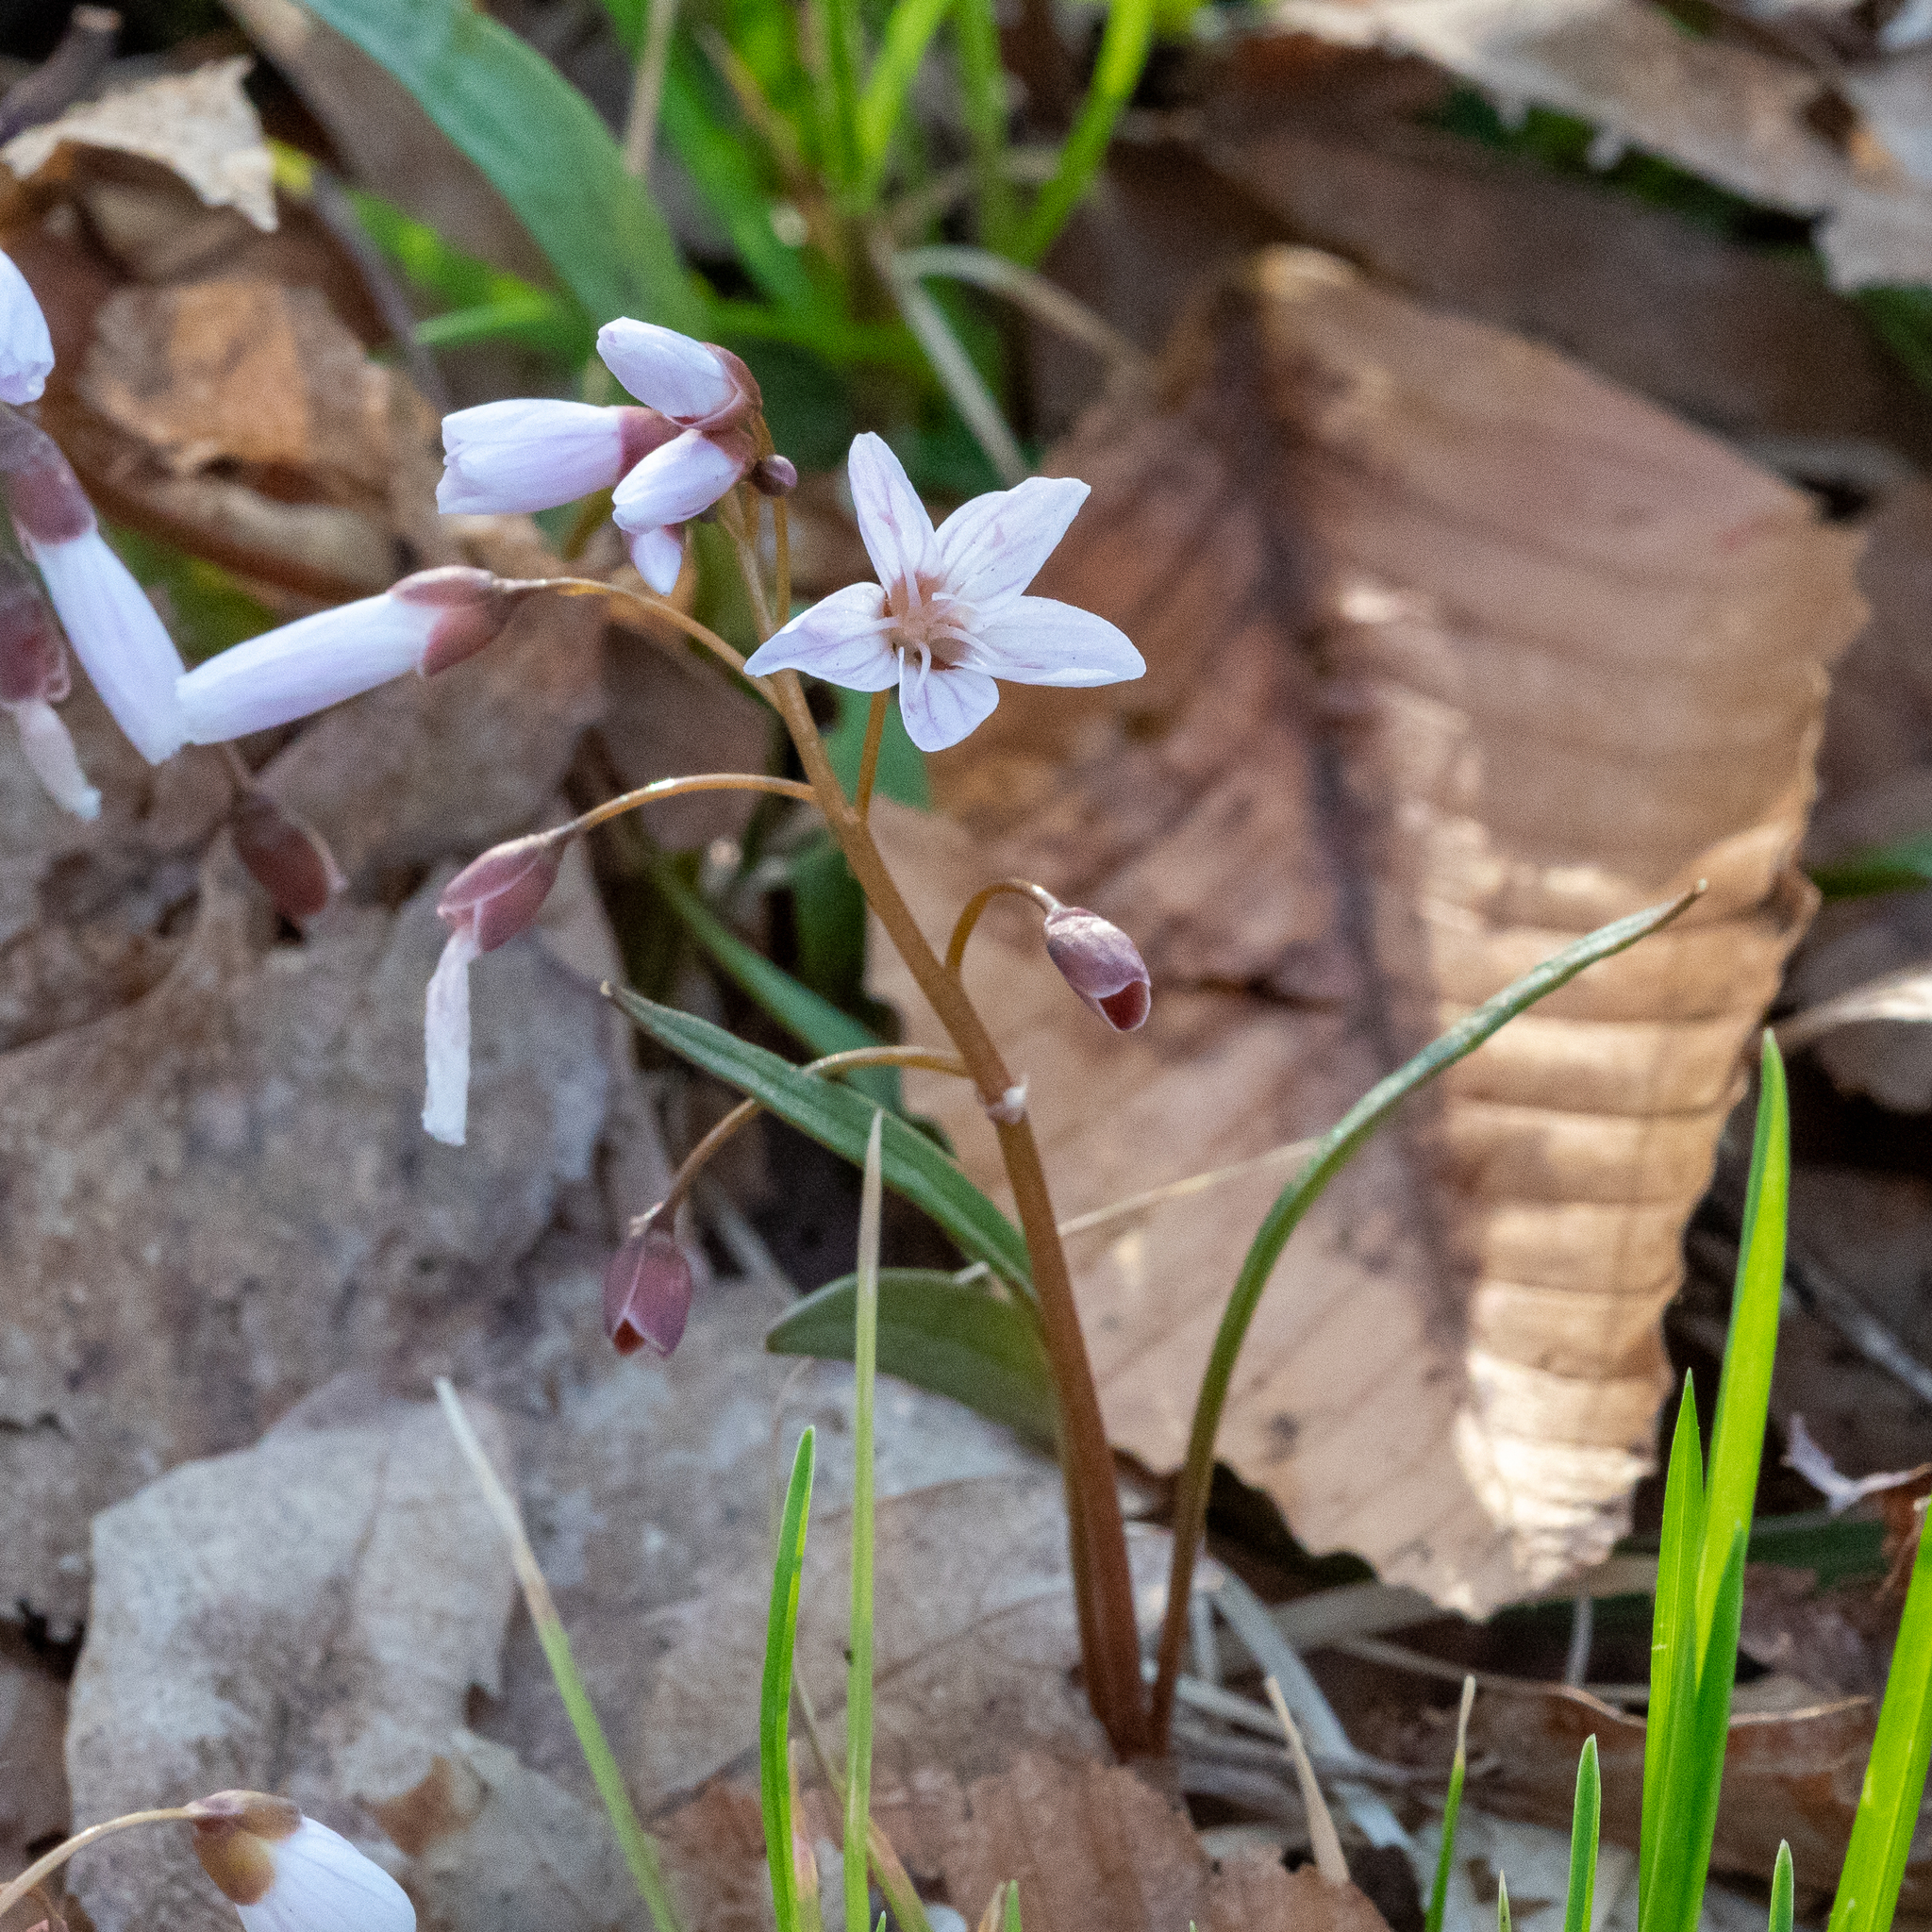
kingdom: Plantae
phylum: Tracheophyta
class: Magnoliopsida
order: Caryophyllales
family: Montiaceae
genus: Claytonia
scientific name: Claytonia virginica
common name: Virginia springbeauty
